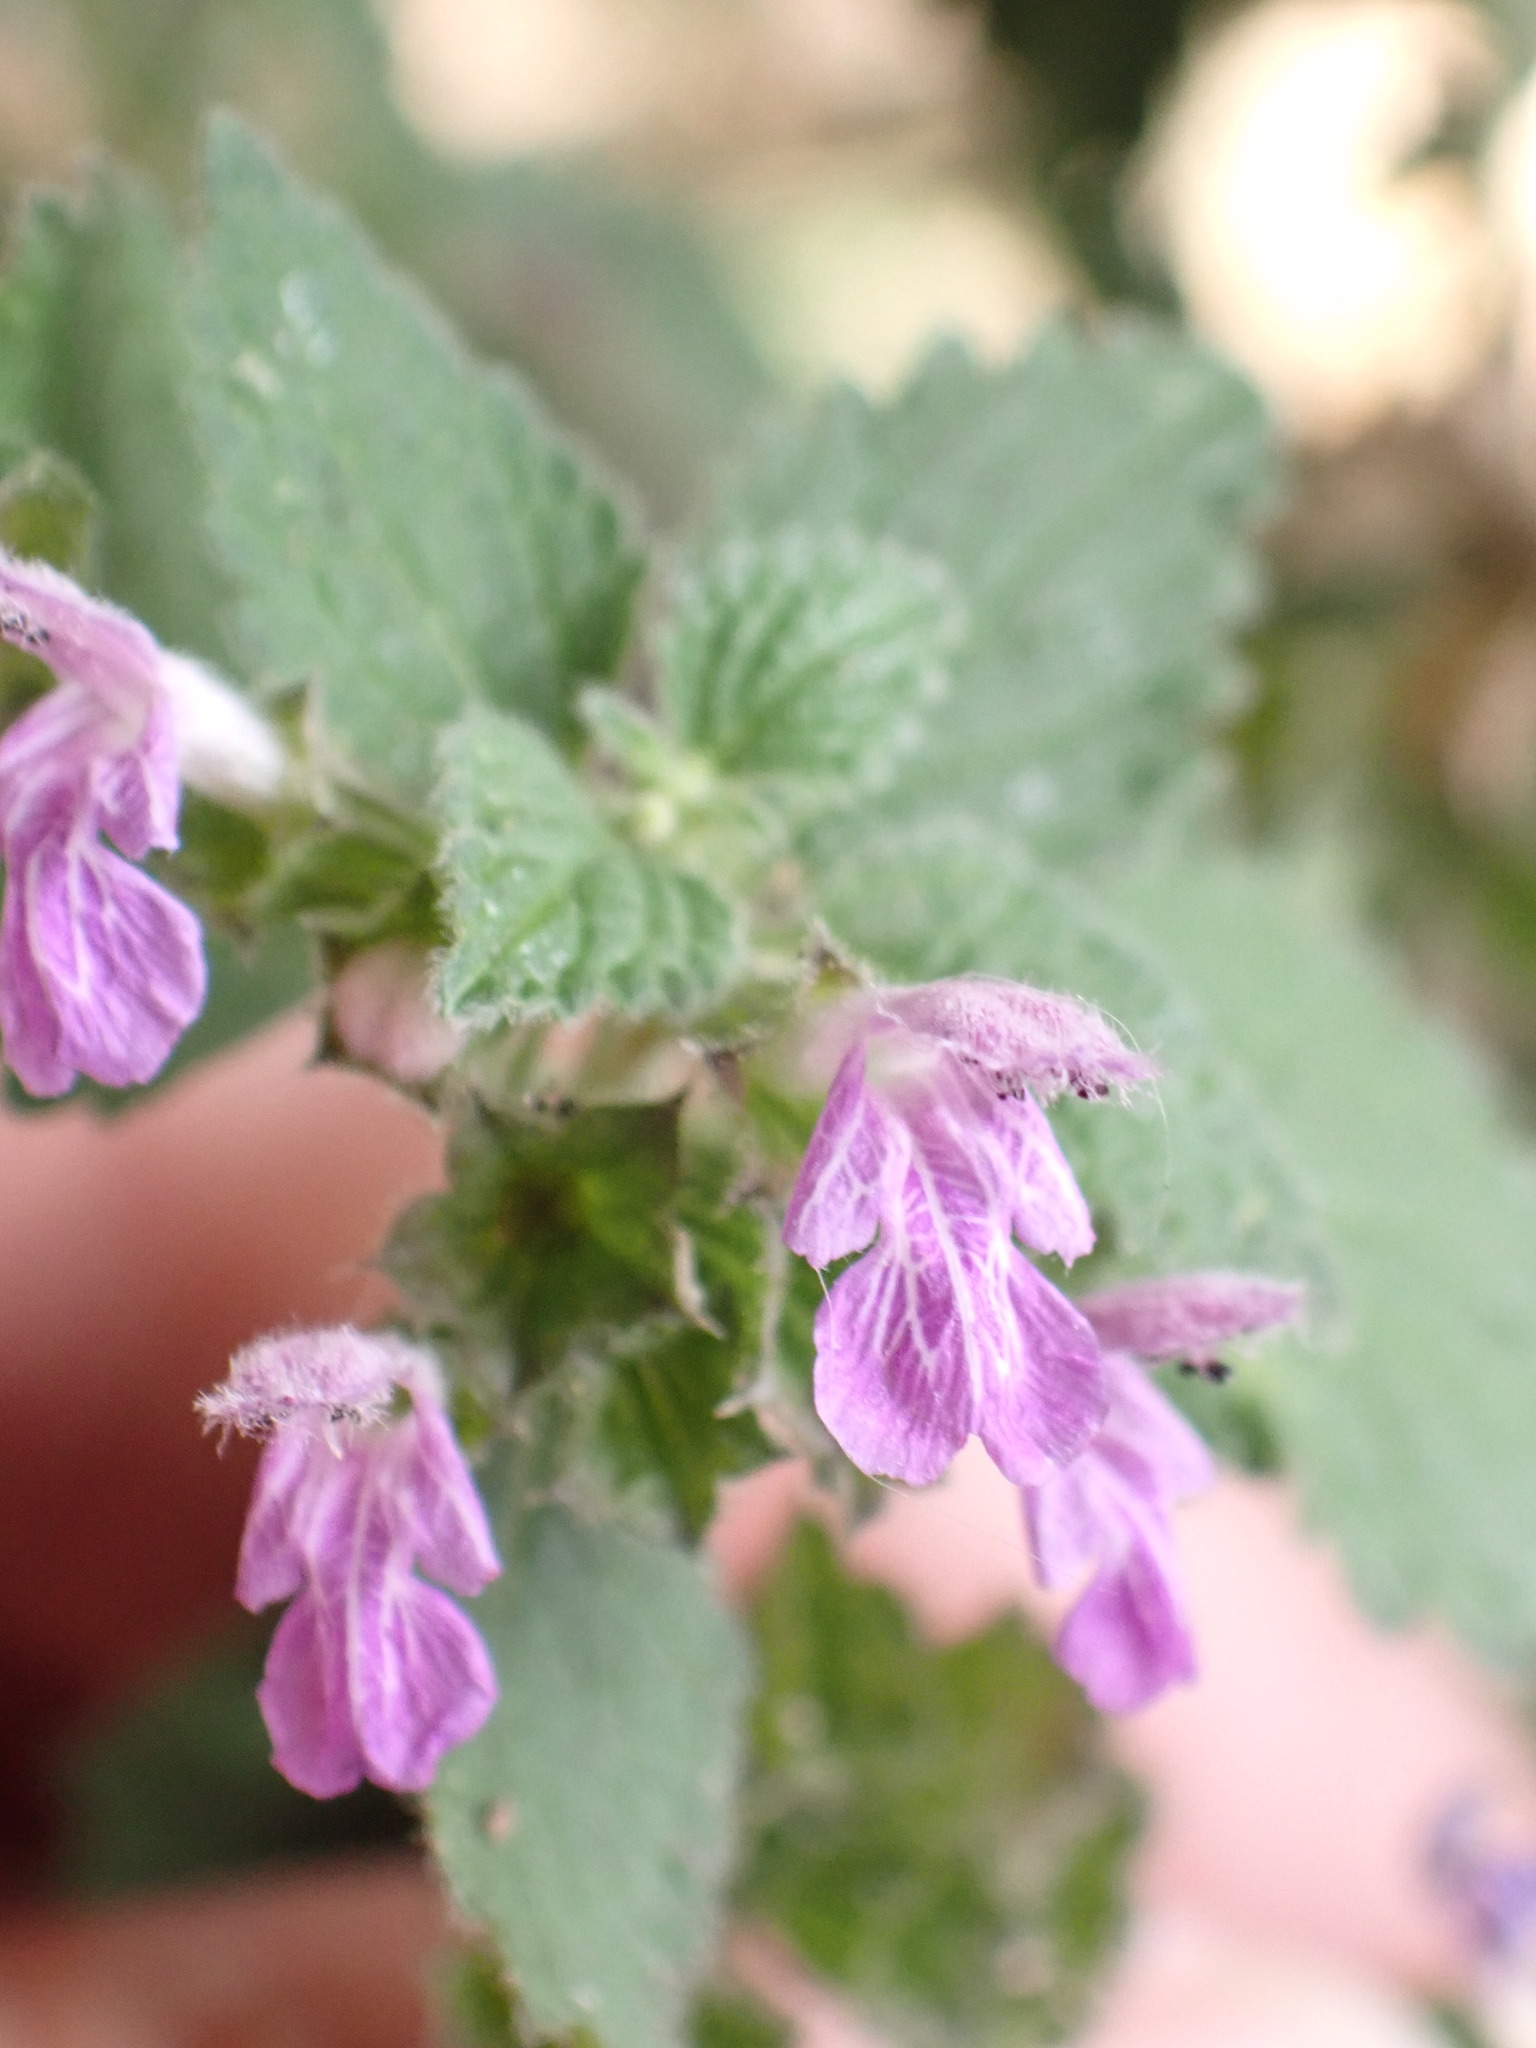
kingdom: Plantae
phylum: Tracheophyta
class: Magnoliopsida
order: Lamiales
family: Lamiaceae
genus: Ballota
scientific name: Ballota nigra
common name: Black horehound
